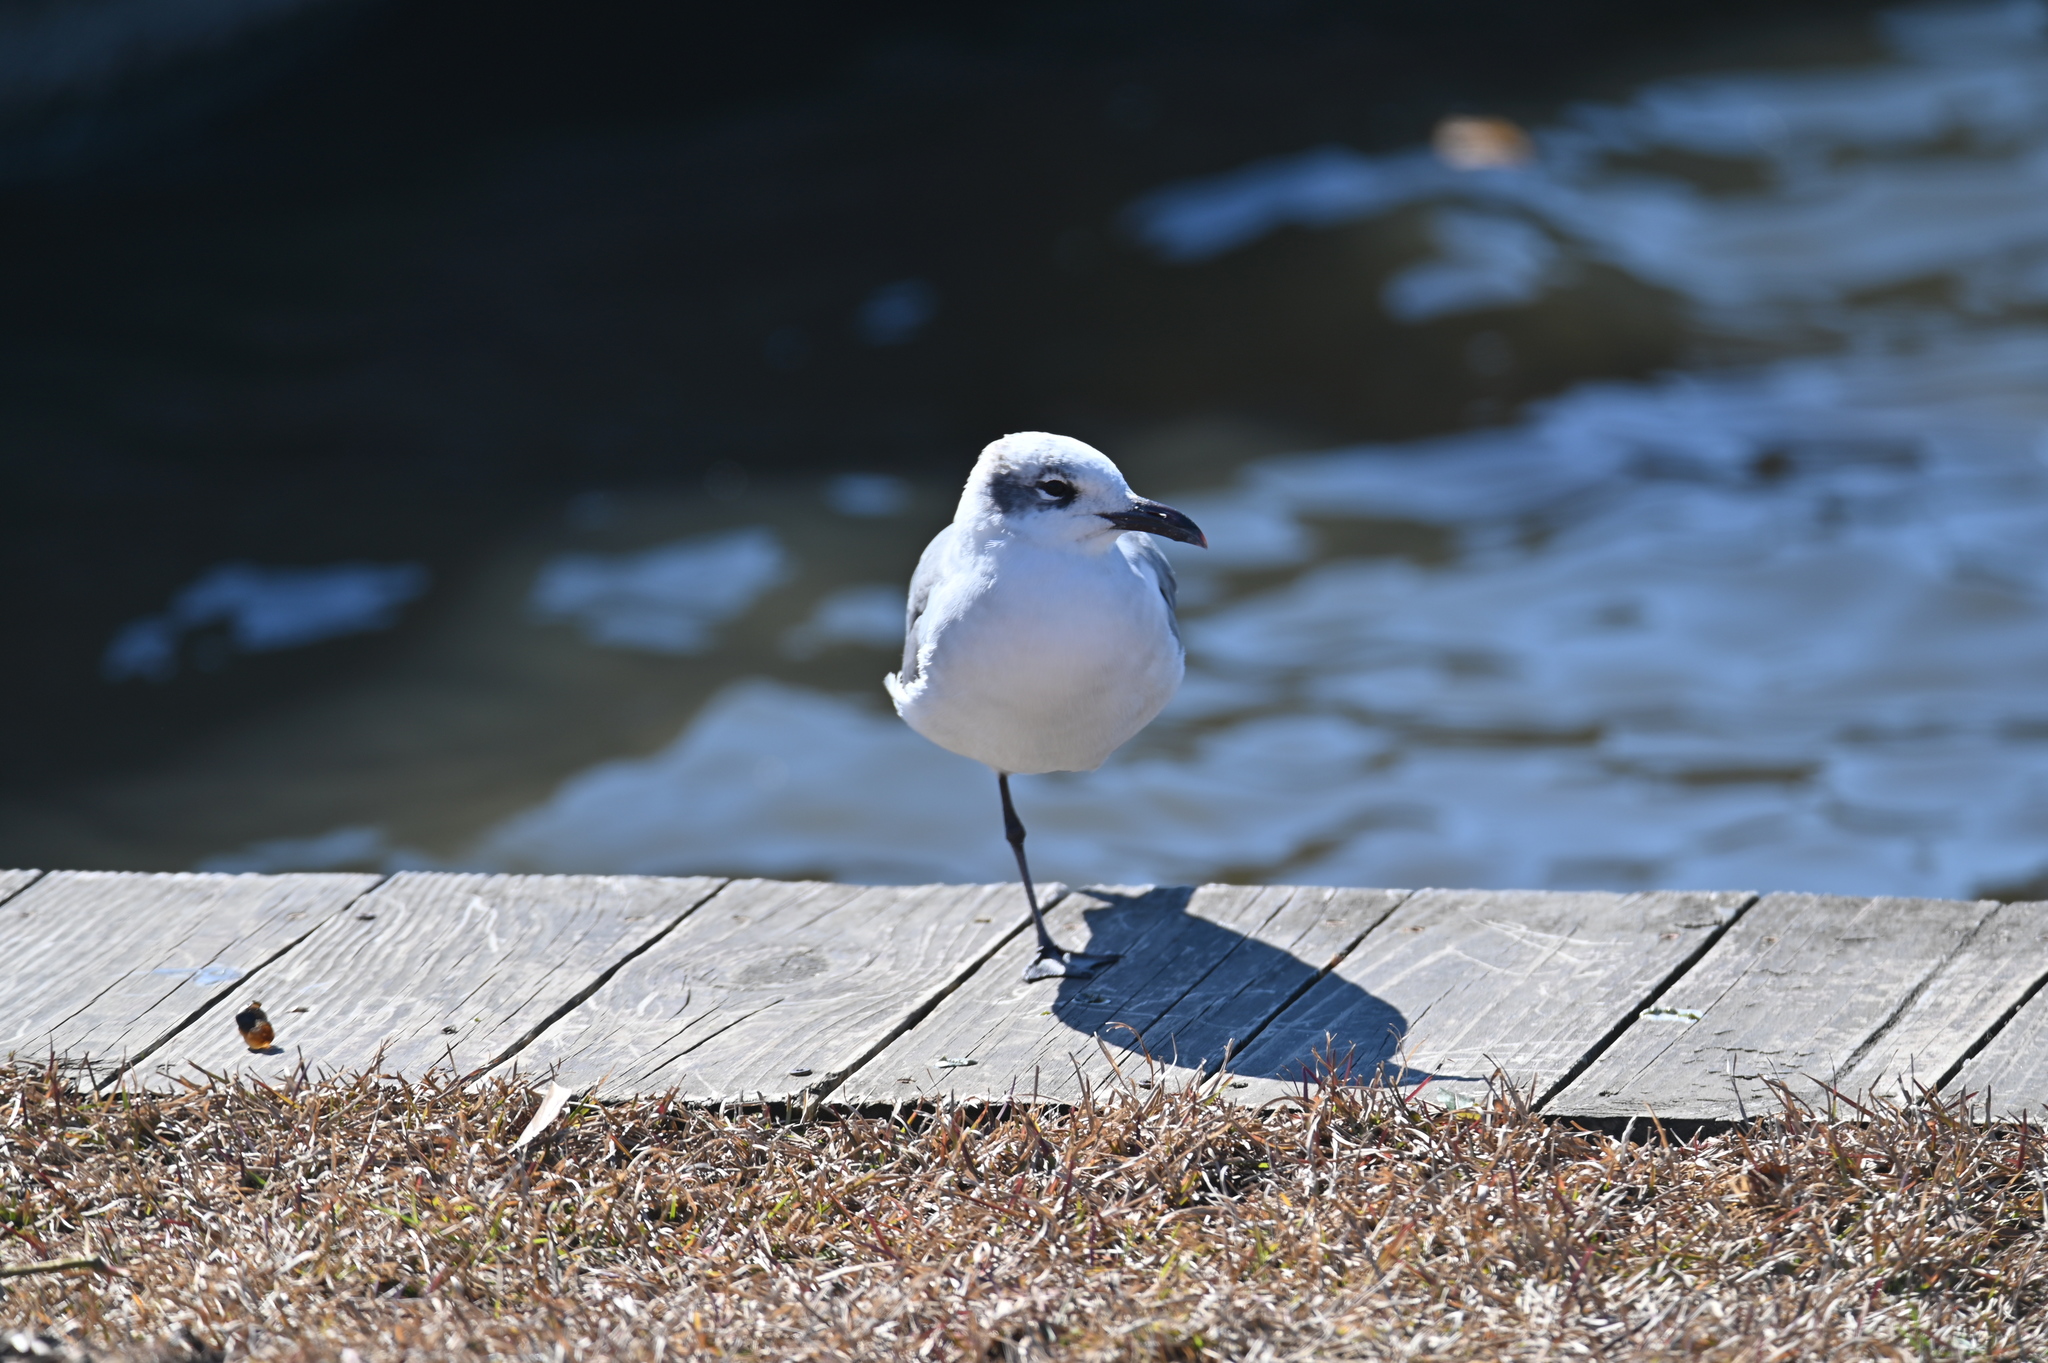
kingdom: Animalia
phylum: Chordata
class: Aves
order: Charadriiformes
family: Laridae
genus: Leucophaeus
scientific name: Leucophaeus atricilla
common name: Laughing gull
